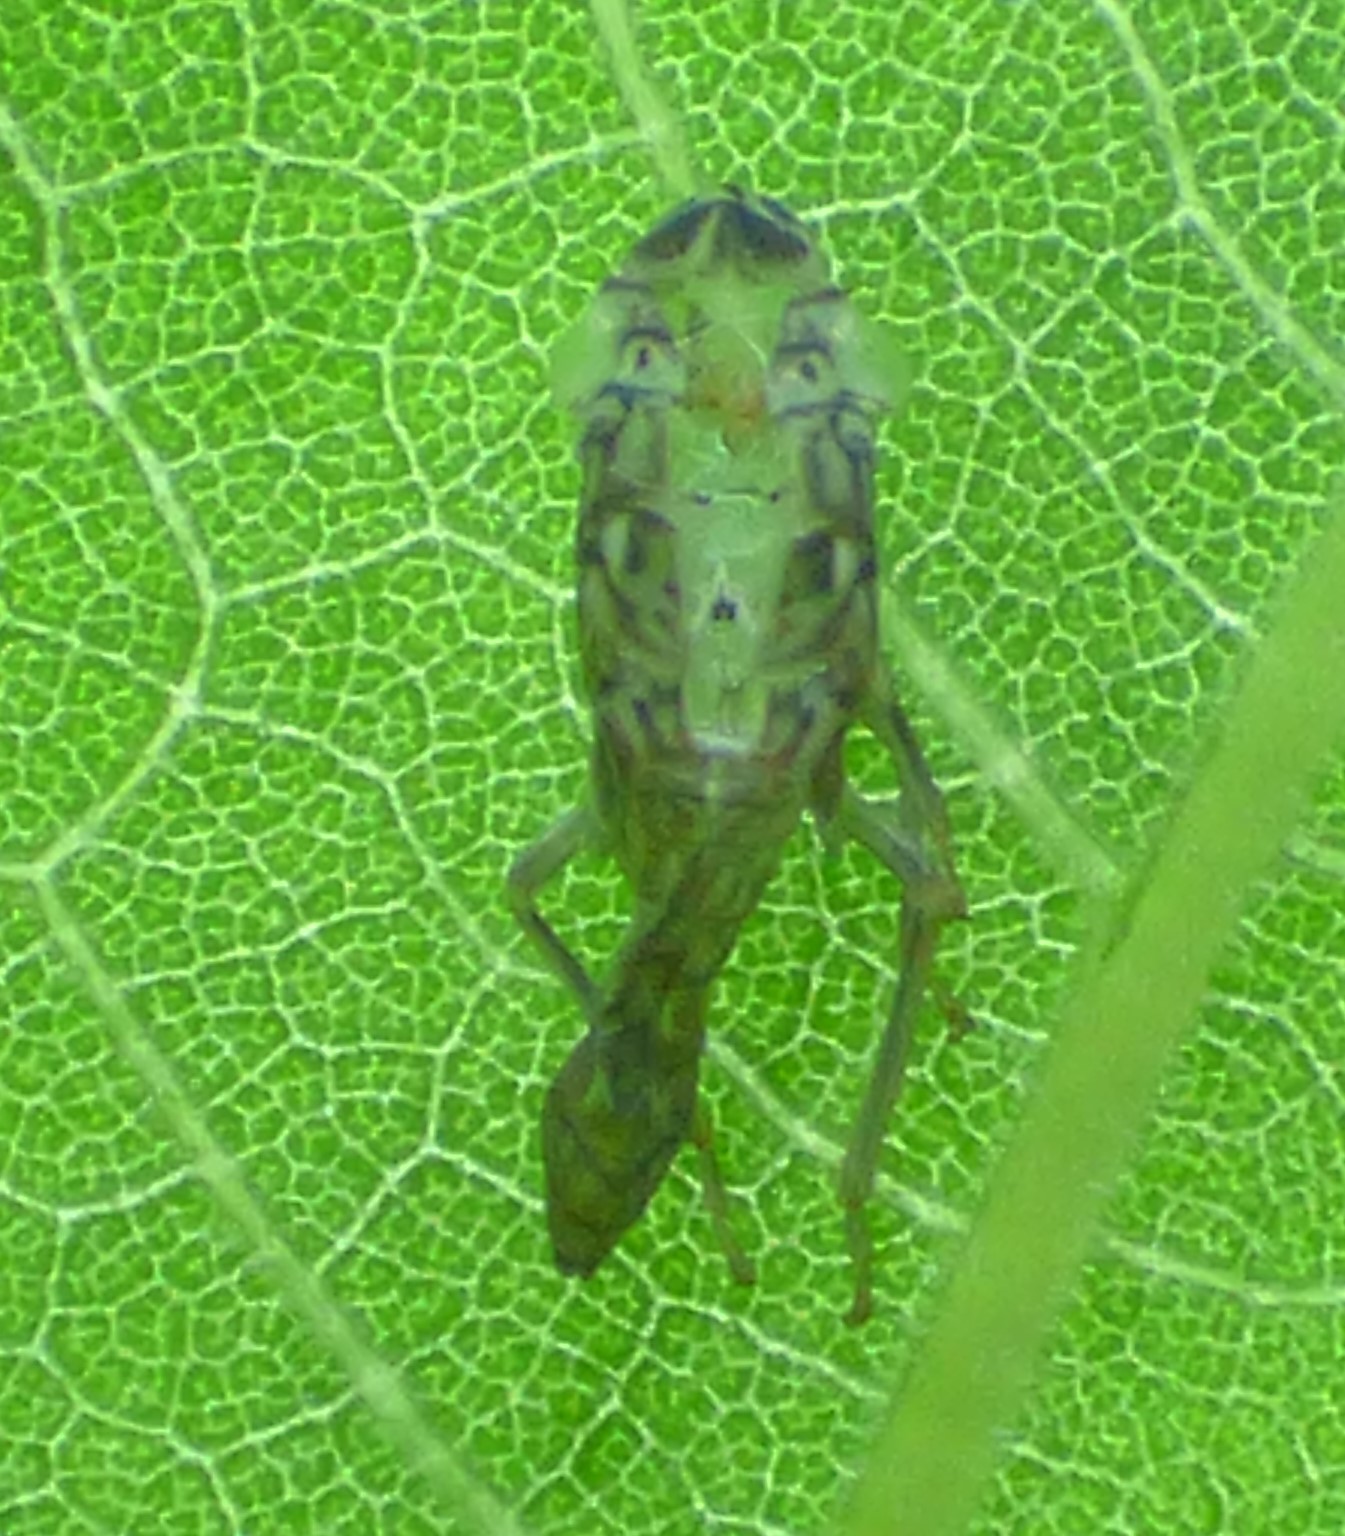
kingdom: Animalia
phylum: Arthropoda
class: Insecta
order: Hemiptera
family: Cicadellidae
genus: Oncometopia
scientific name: Oncometopia orbona
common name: Broad-headed sharpshooter
